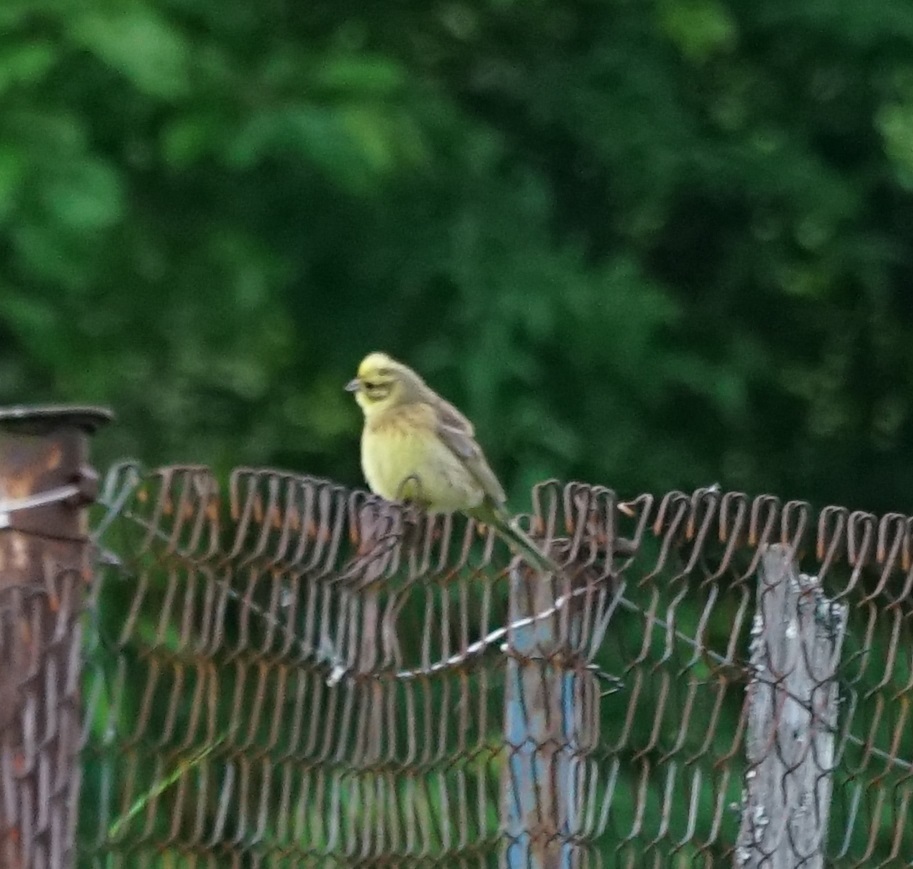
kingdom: Animalia
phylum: Chordata
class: Aves
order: Passeriformes
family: Emberizidae
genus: Emberiza
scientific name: Emberiza citrinella
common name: Yellowhammer
